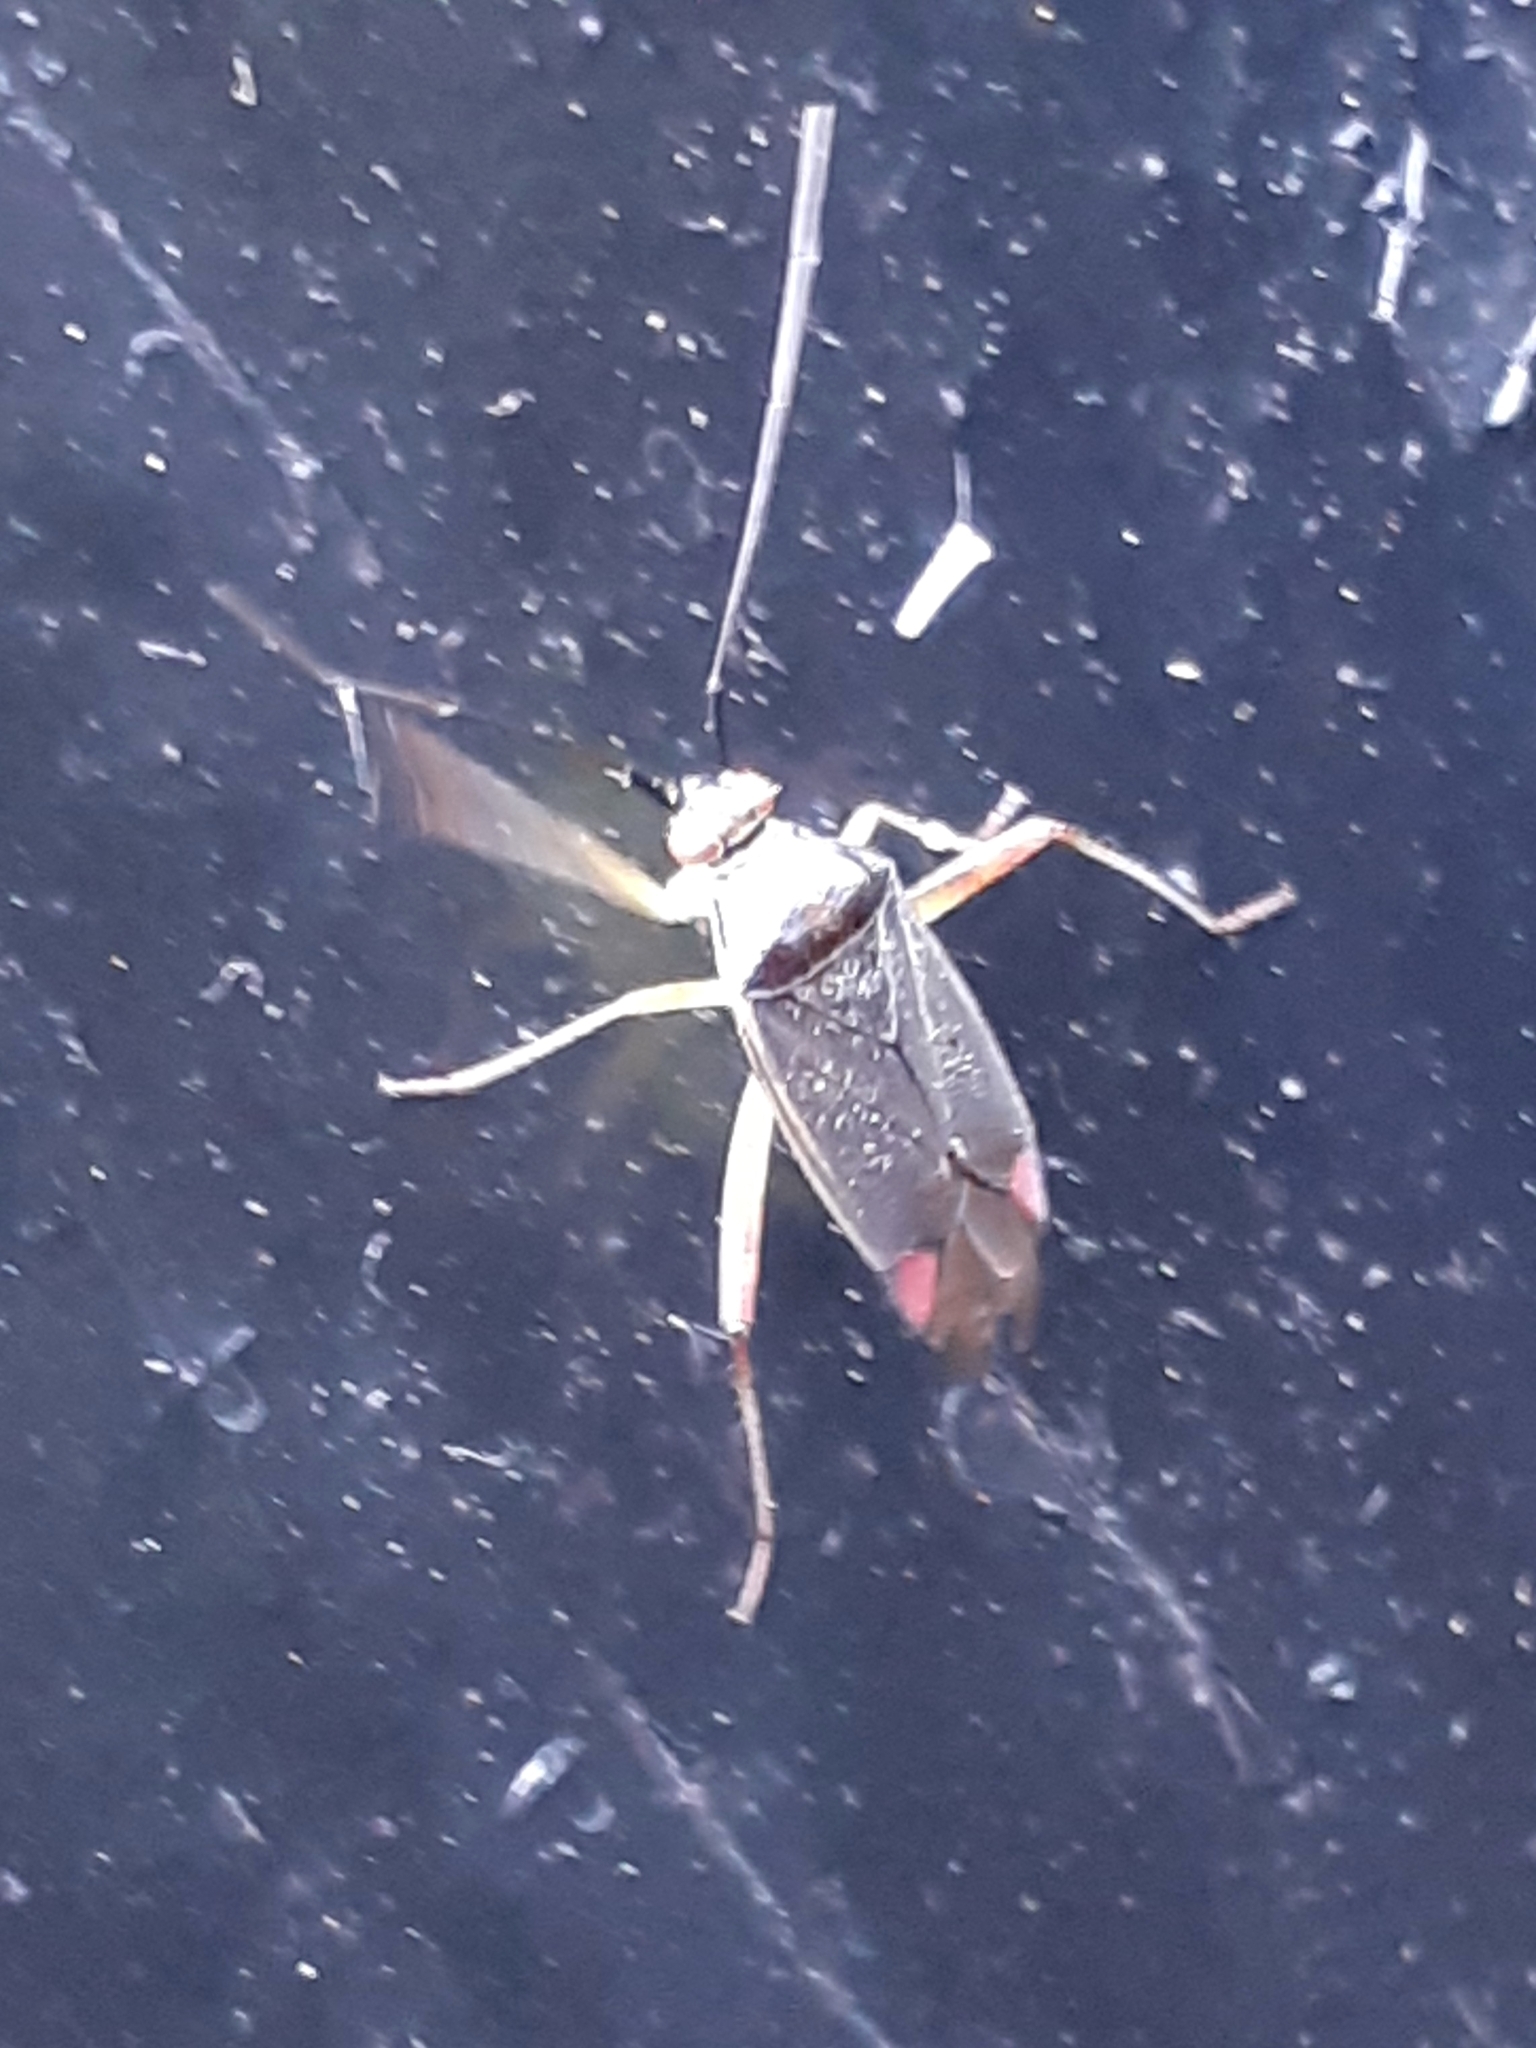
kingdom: Animalia
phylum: Arthropoda
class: Insecta
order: Hemiptera
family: Miridae
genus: Closterotomus
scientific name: Closterotomus trivialis
